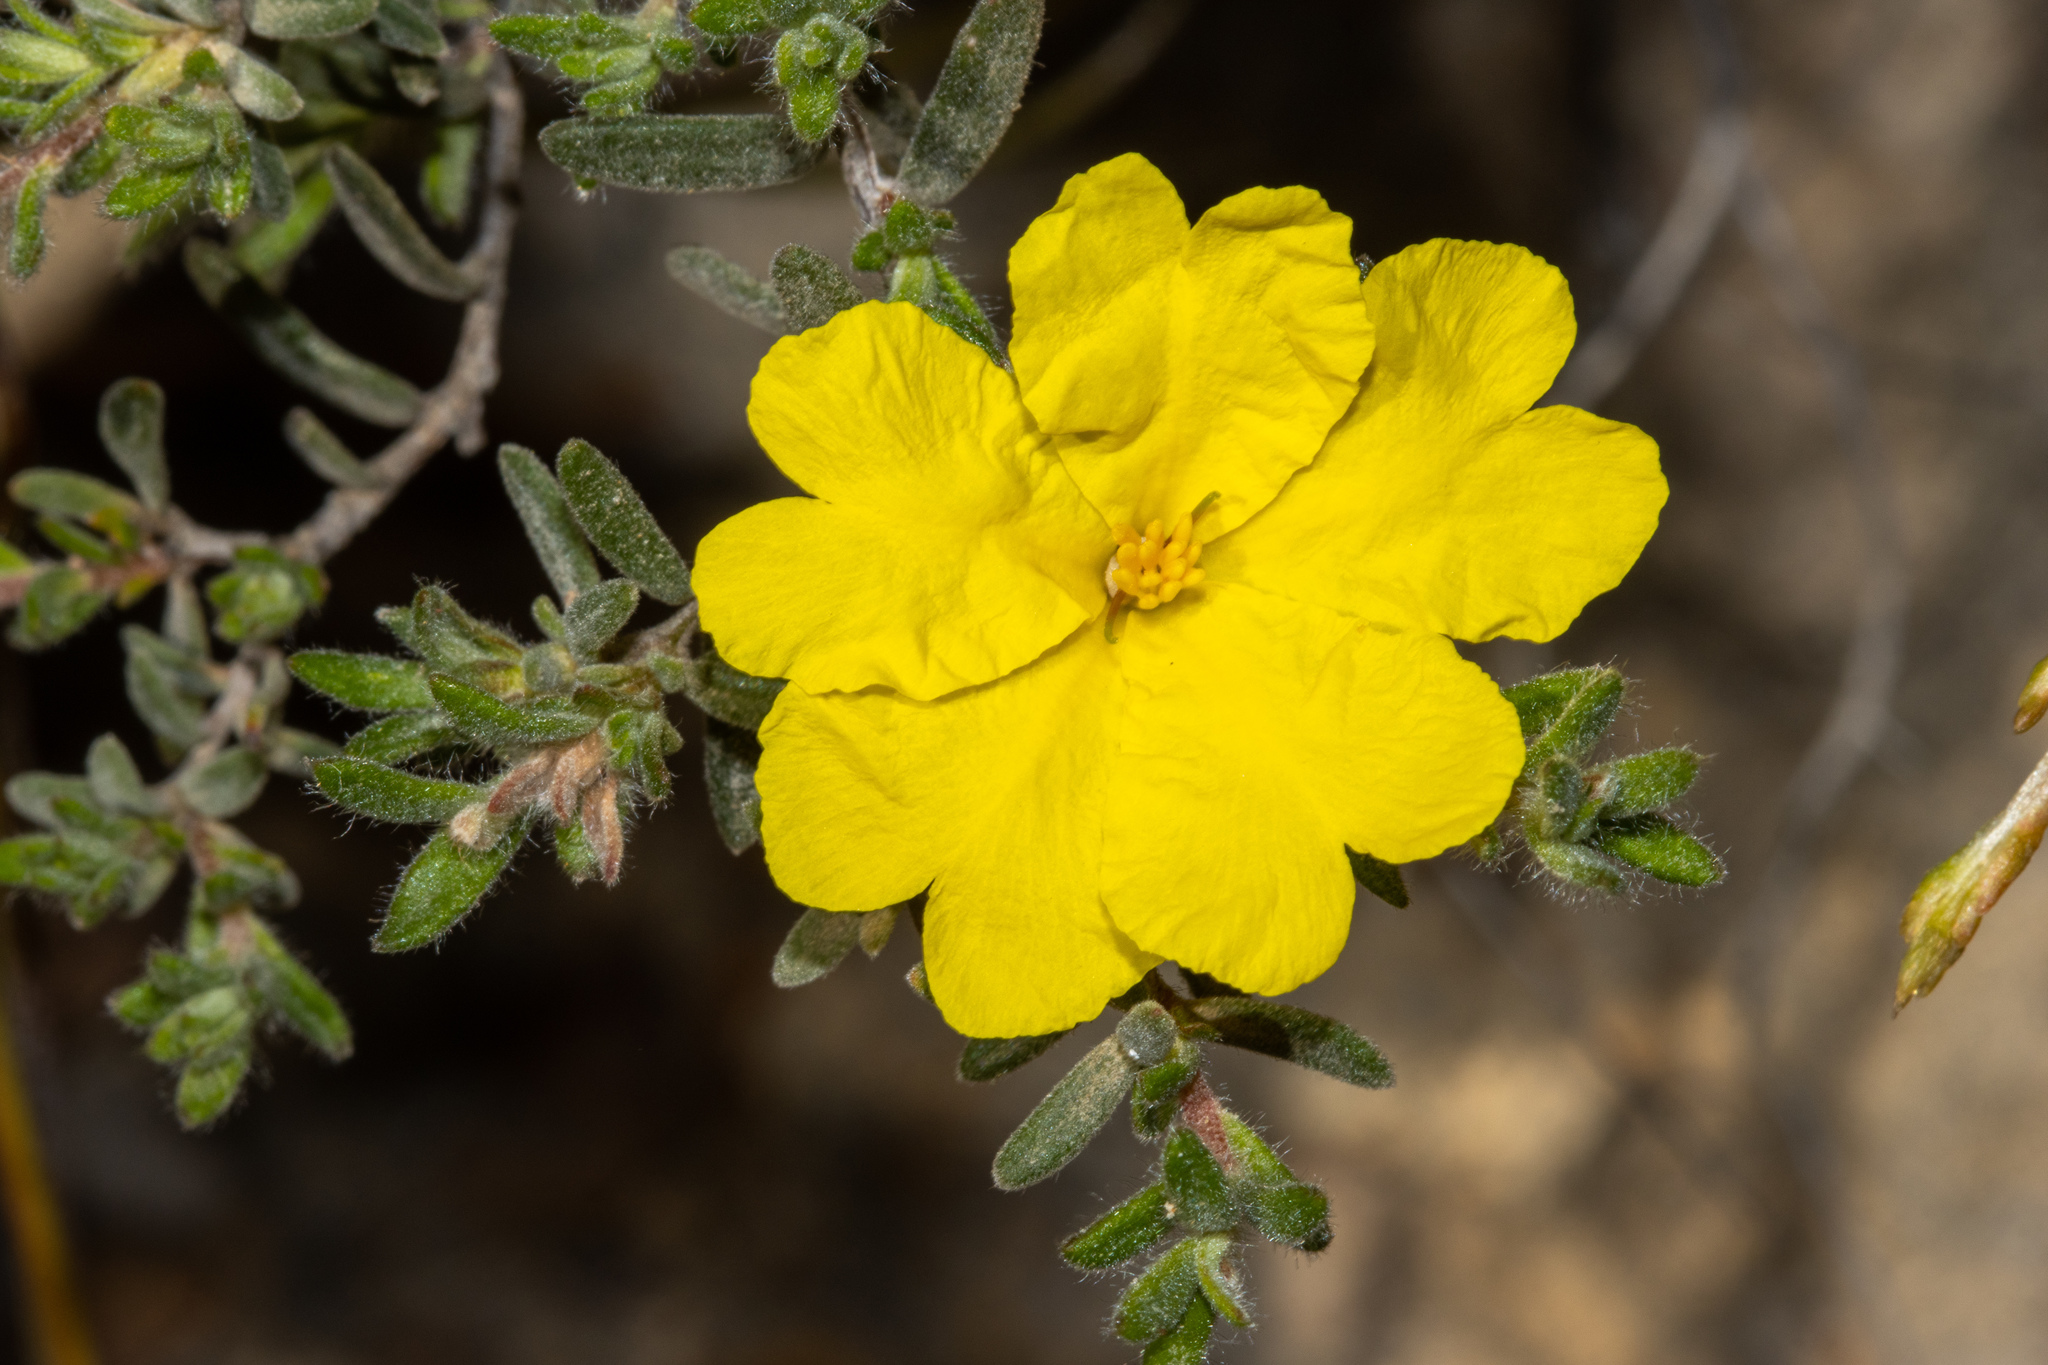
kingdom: Plantae
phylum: Tracheophyta
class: Magnoliopsida
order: Dilleniales
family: Dilleniaceae
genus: Hibbertia
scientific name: Hibbertia crinita
